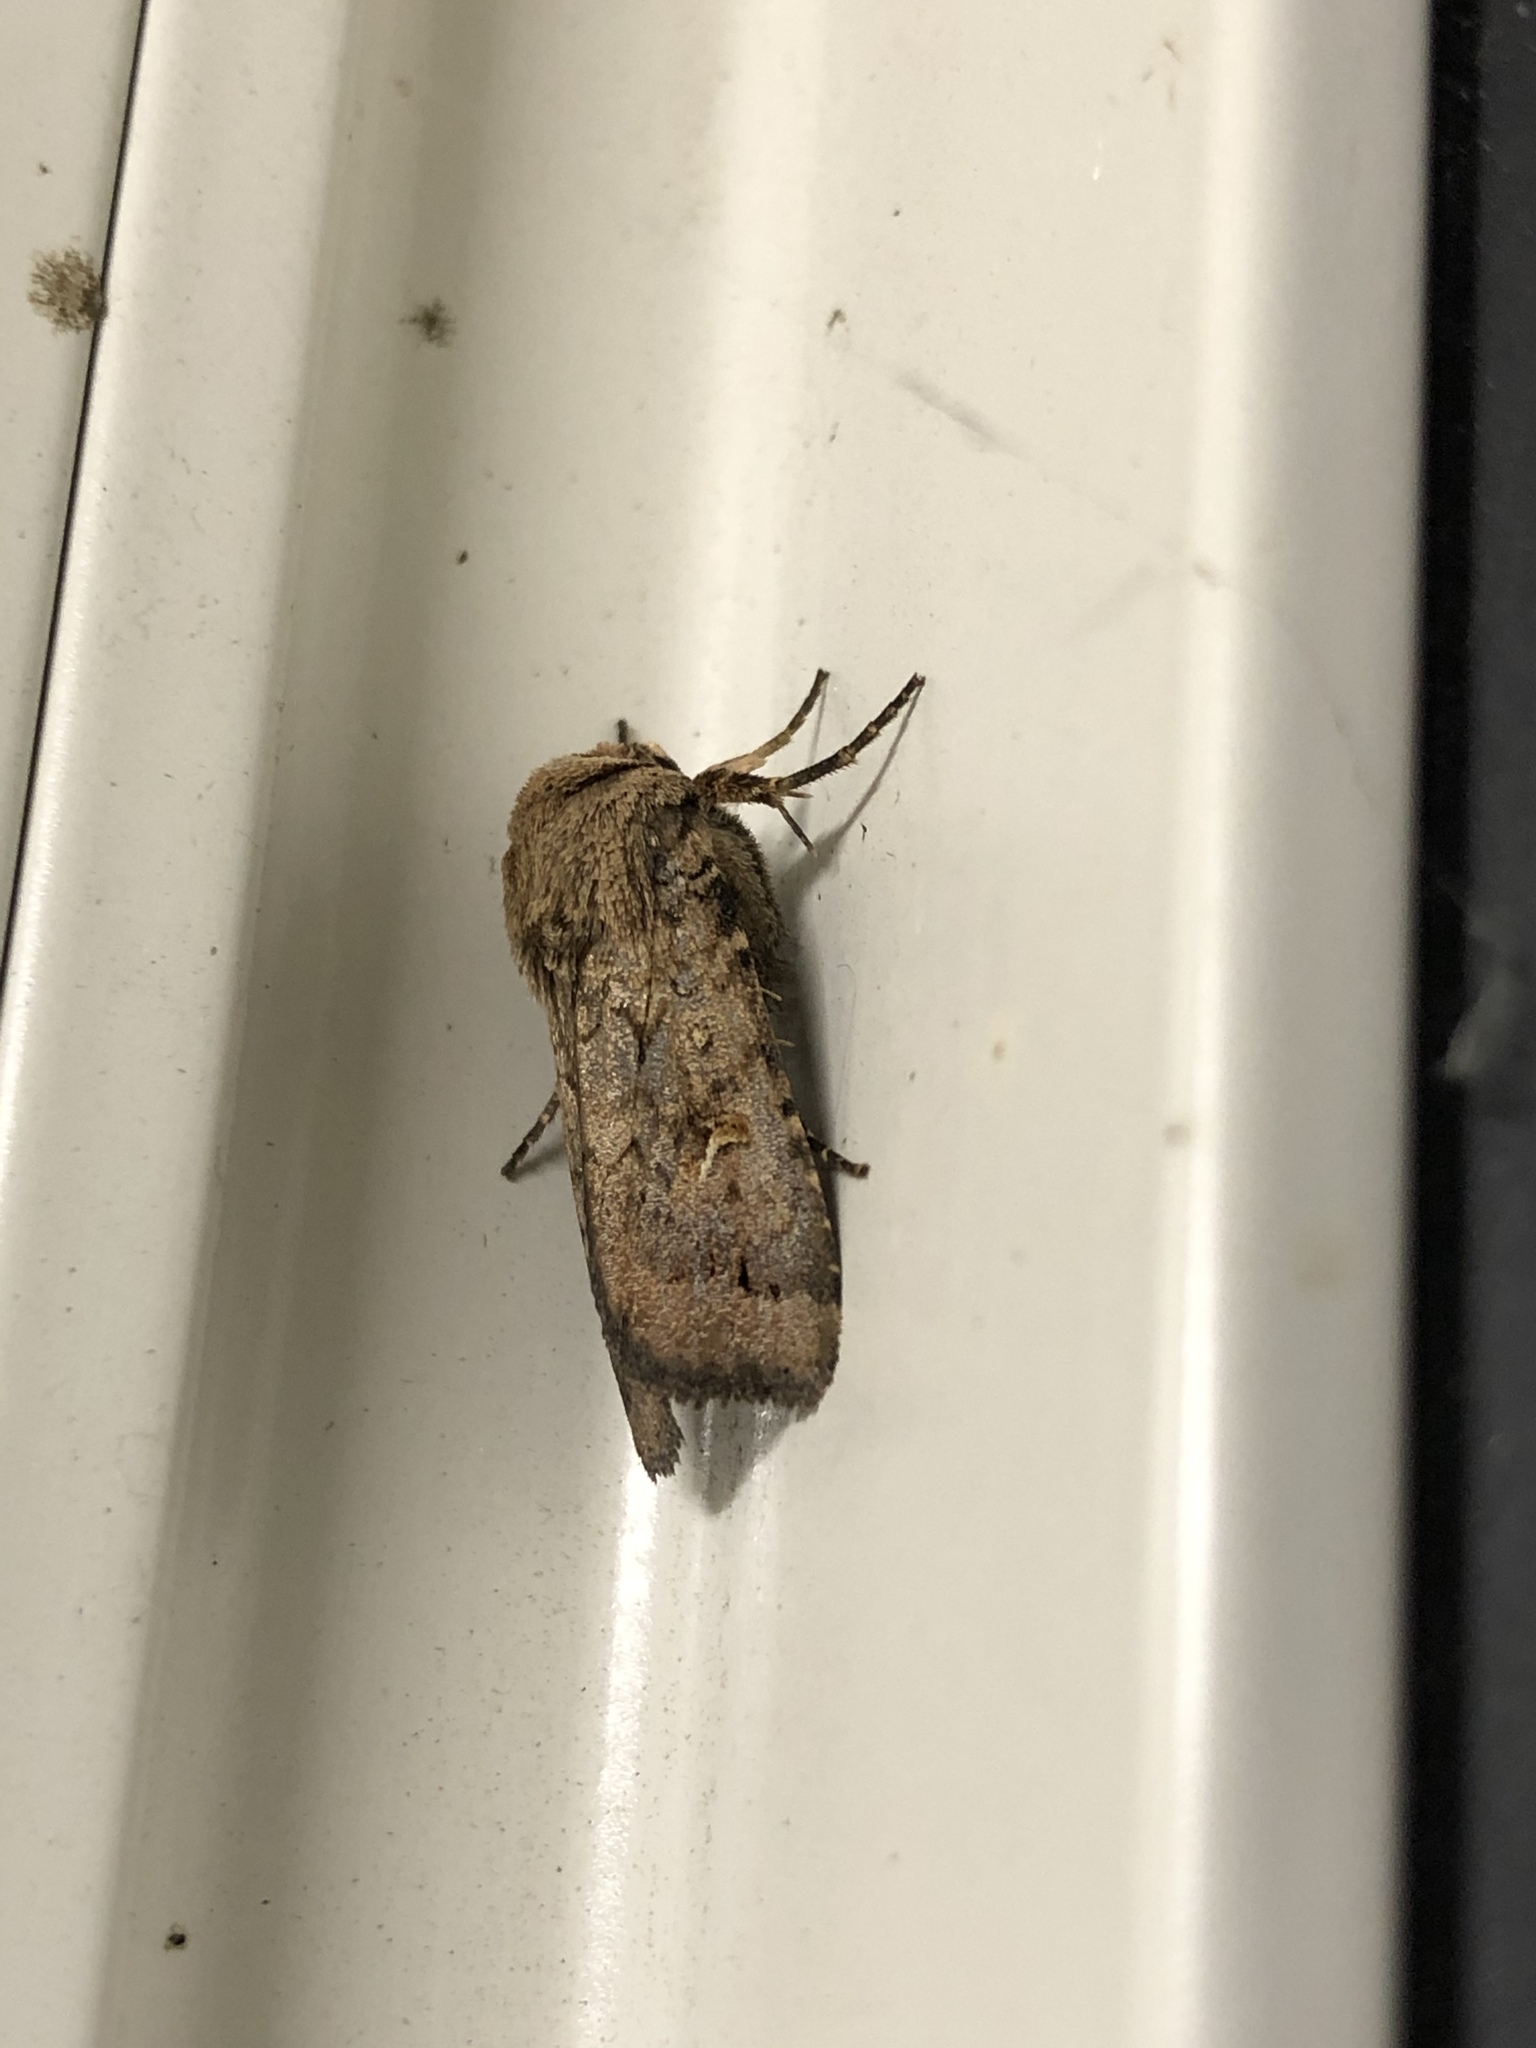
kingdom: Animalia
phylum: Arthropoda
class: Insecta
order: Lepidoptera
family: Noctuidae
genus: Proteuxoa
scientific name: Proteuxoa tetronycha
